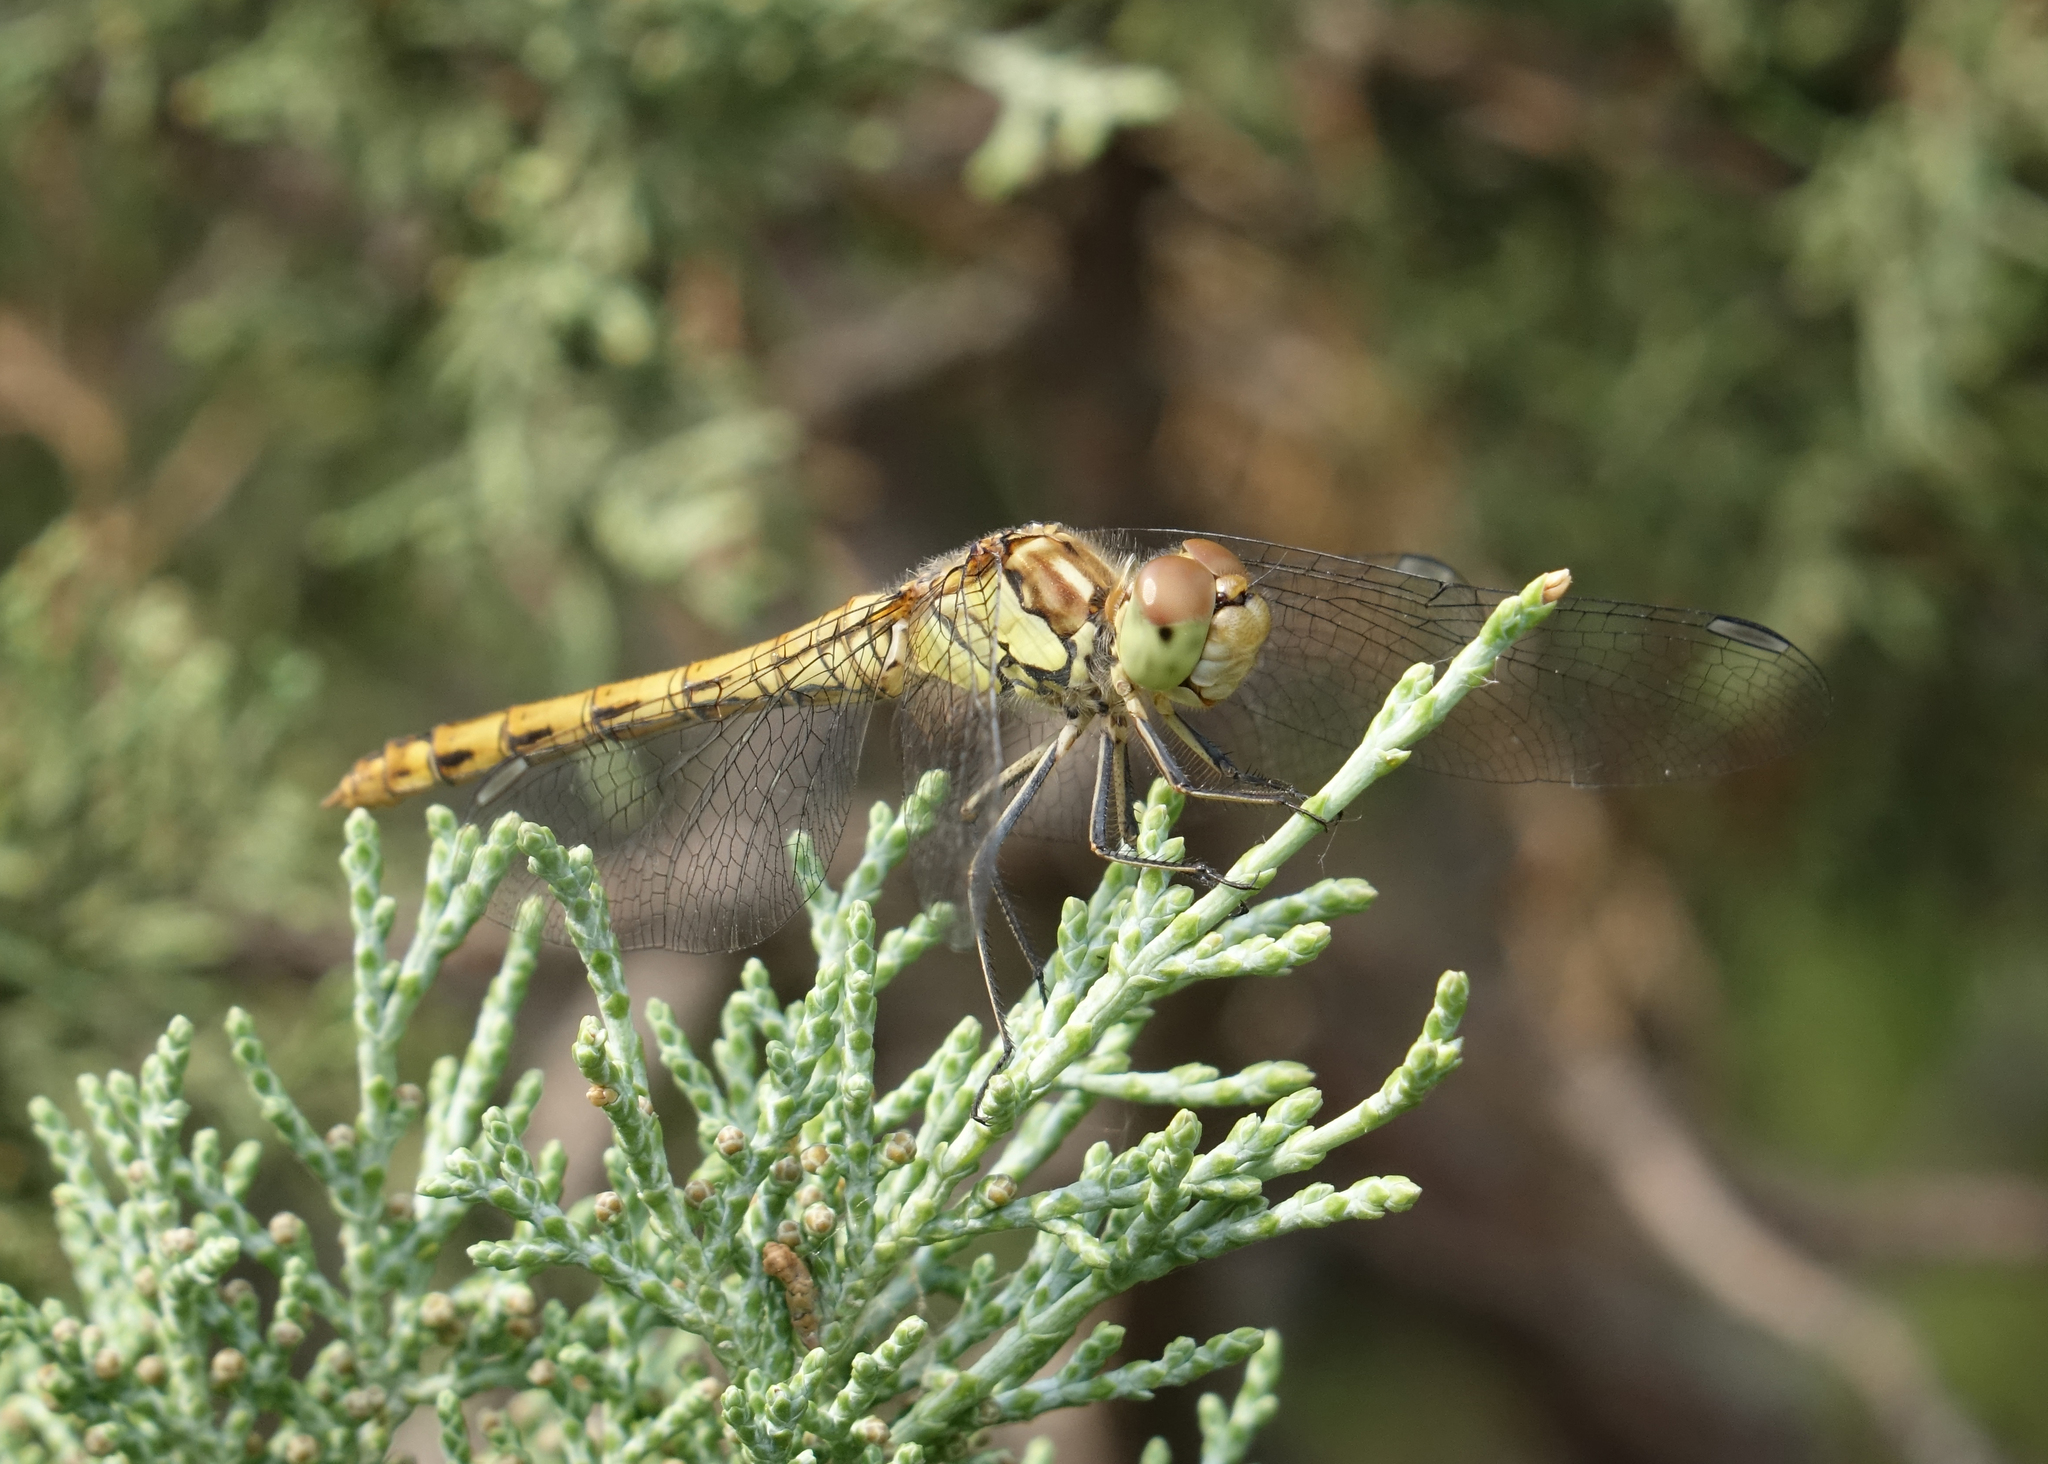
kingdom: Animalia
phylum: Arthropoda
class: Insecta
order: Odonata
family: Libellulidae
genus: Sympetrum
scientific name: Sympetrum striolatum
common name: Common darter
